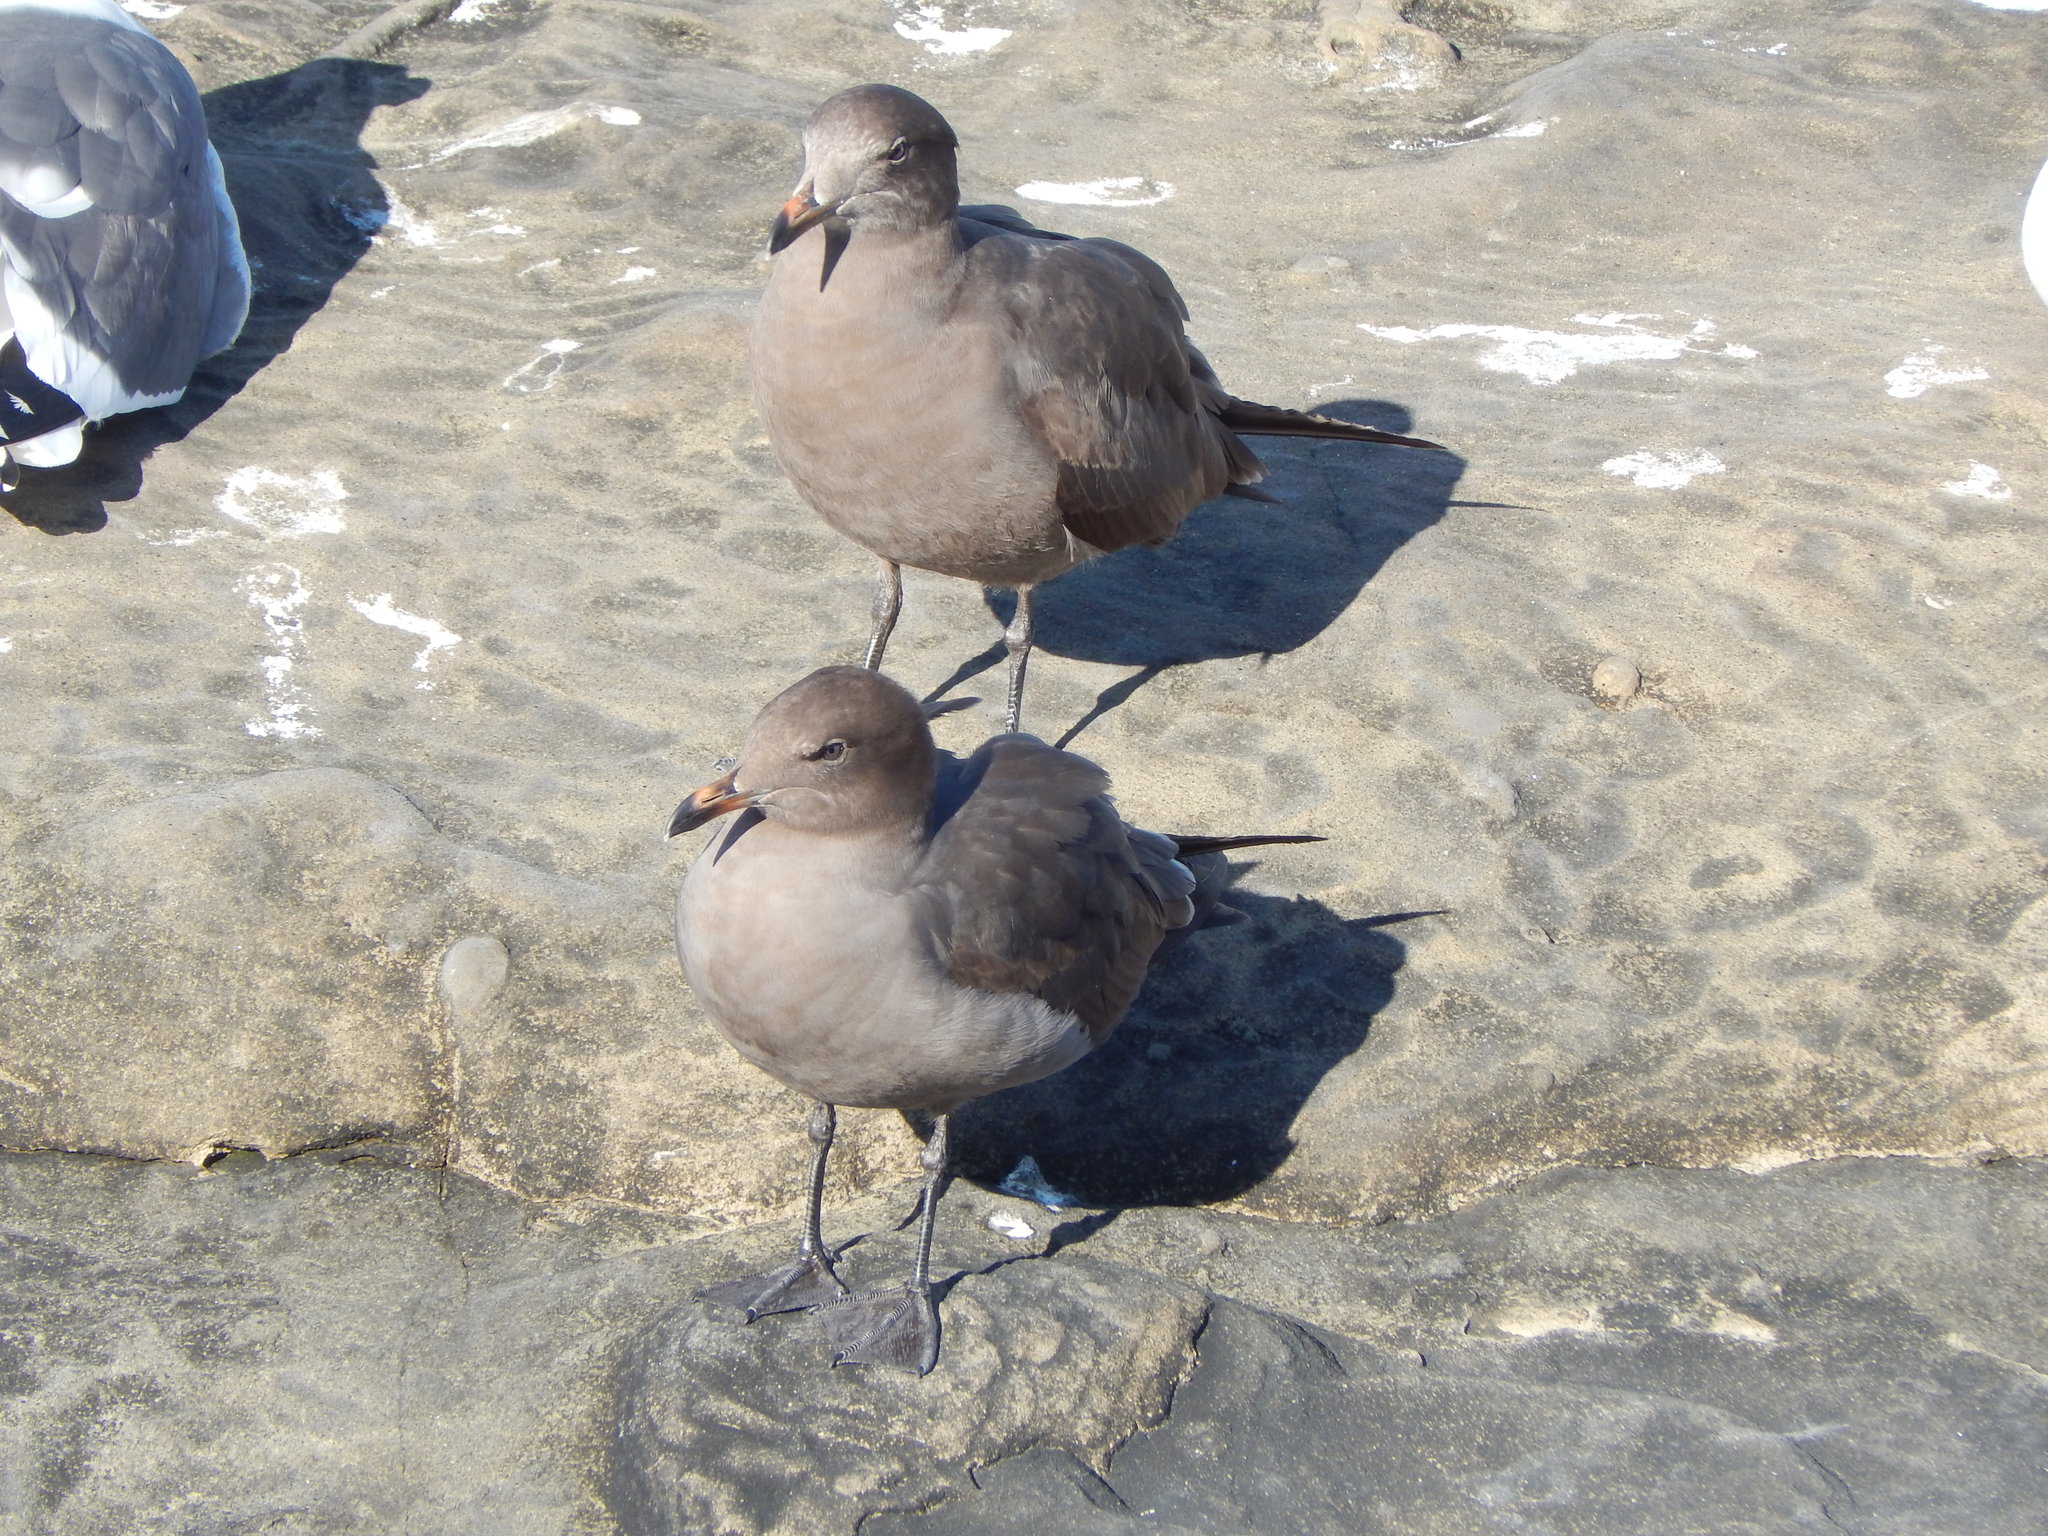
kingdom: Animalia
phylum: Chordata
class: Aves
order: Charadriiformes
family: Laridae
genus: Larus
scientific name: Larus heermanni
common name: Heermann's gull
